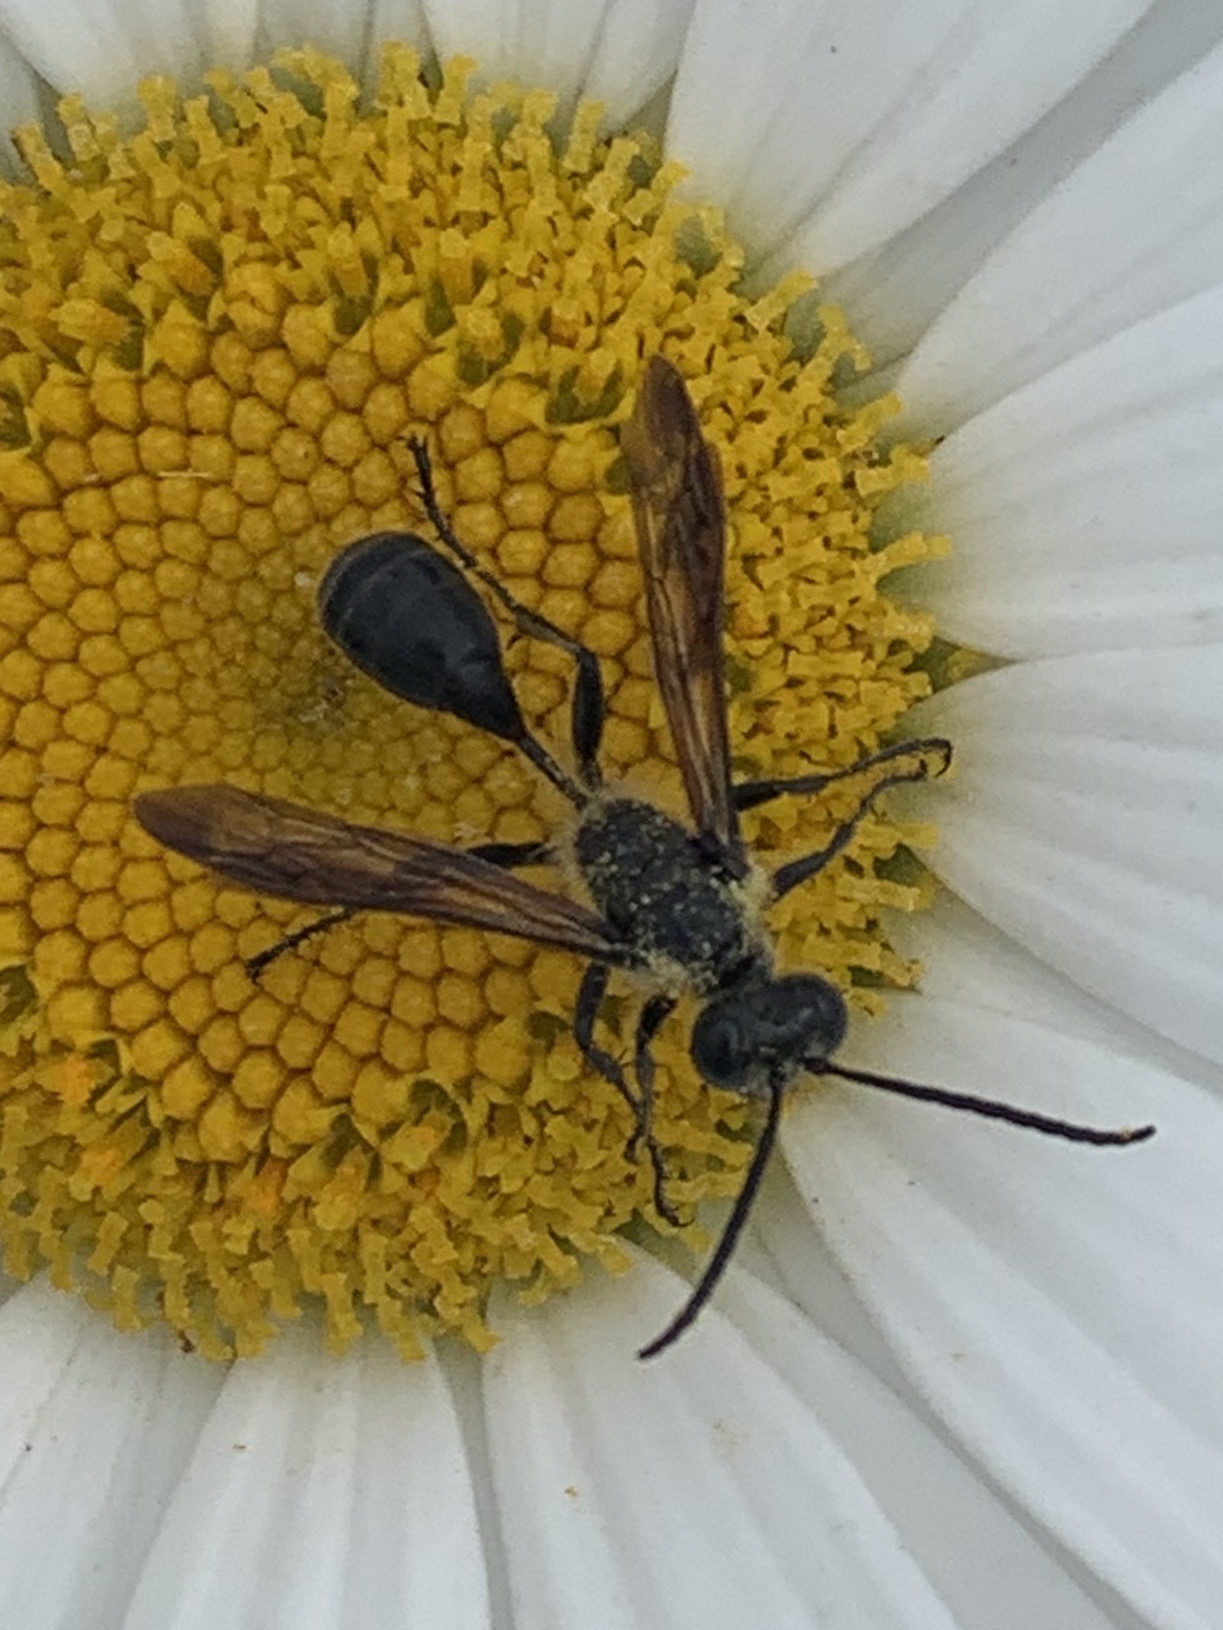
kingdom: Animalia
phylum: Arthropoda
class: Insecta
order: Hymenoptera
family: Sphecidae
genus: Isodontia
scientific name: Isodontia mexicana
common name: Mud dauber
